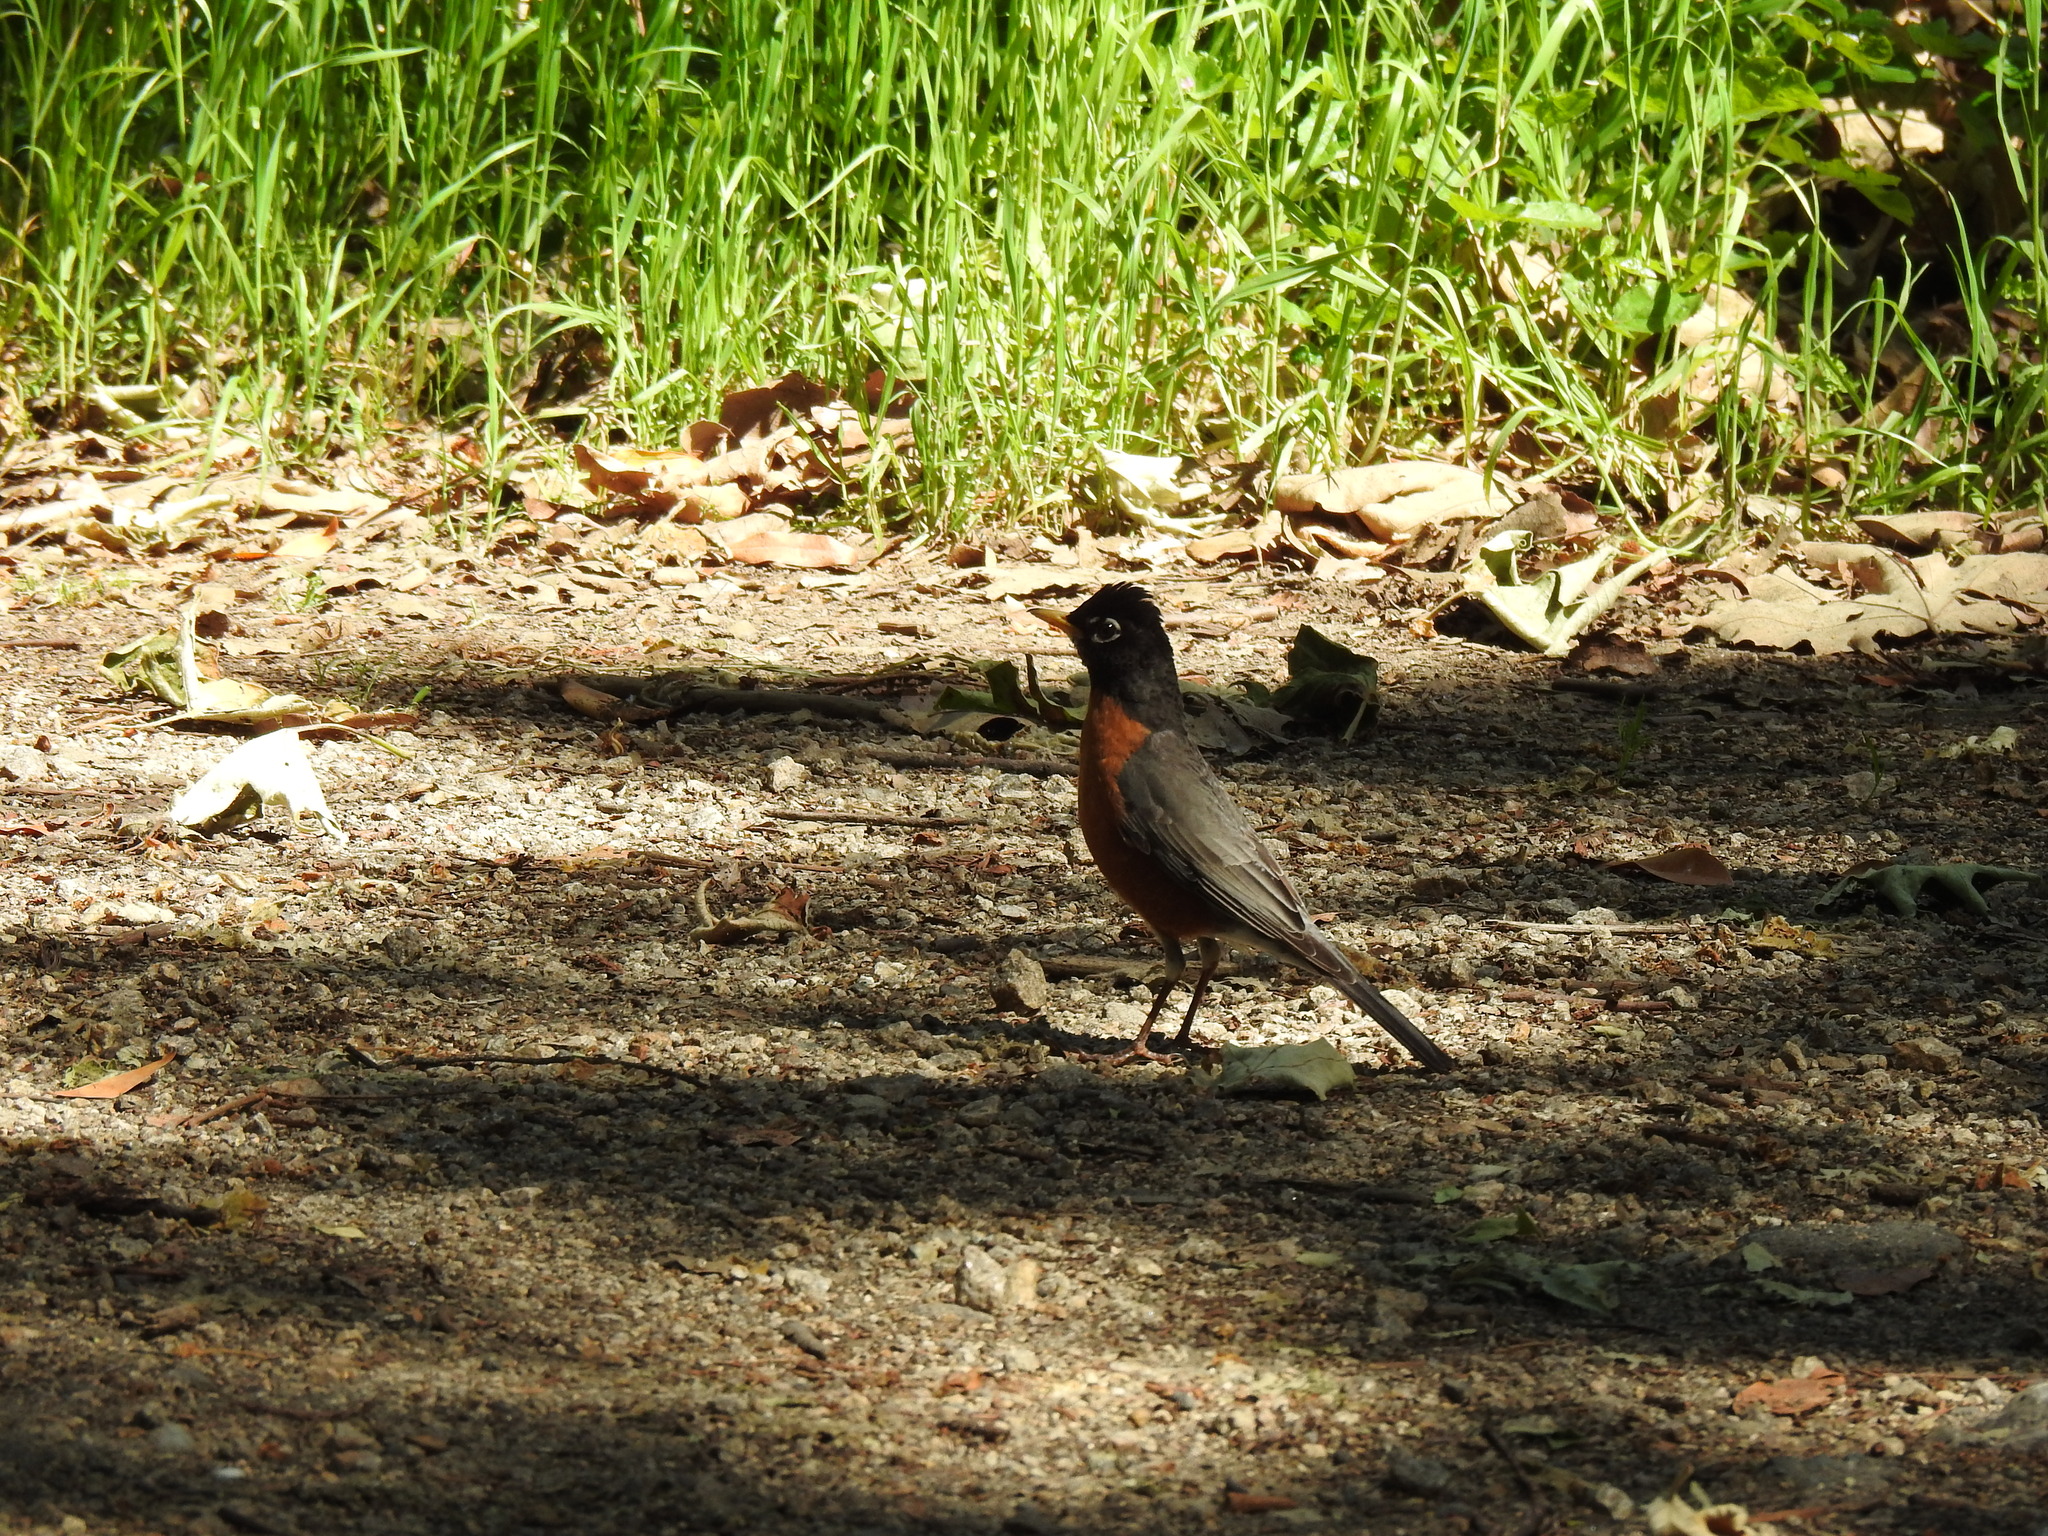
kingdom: Animalia
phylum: Chordata
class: Aves
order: Passeriformes
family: Turdidae
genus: Turdus
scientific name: Turdus migratorius
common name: American robin
